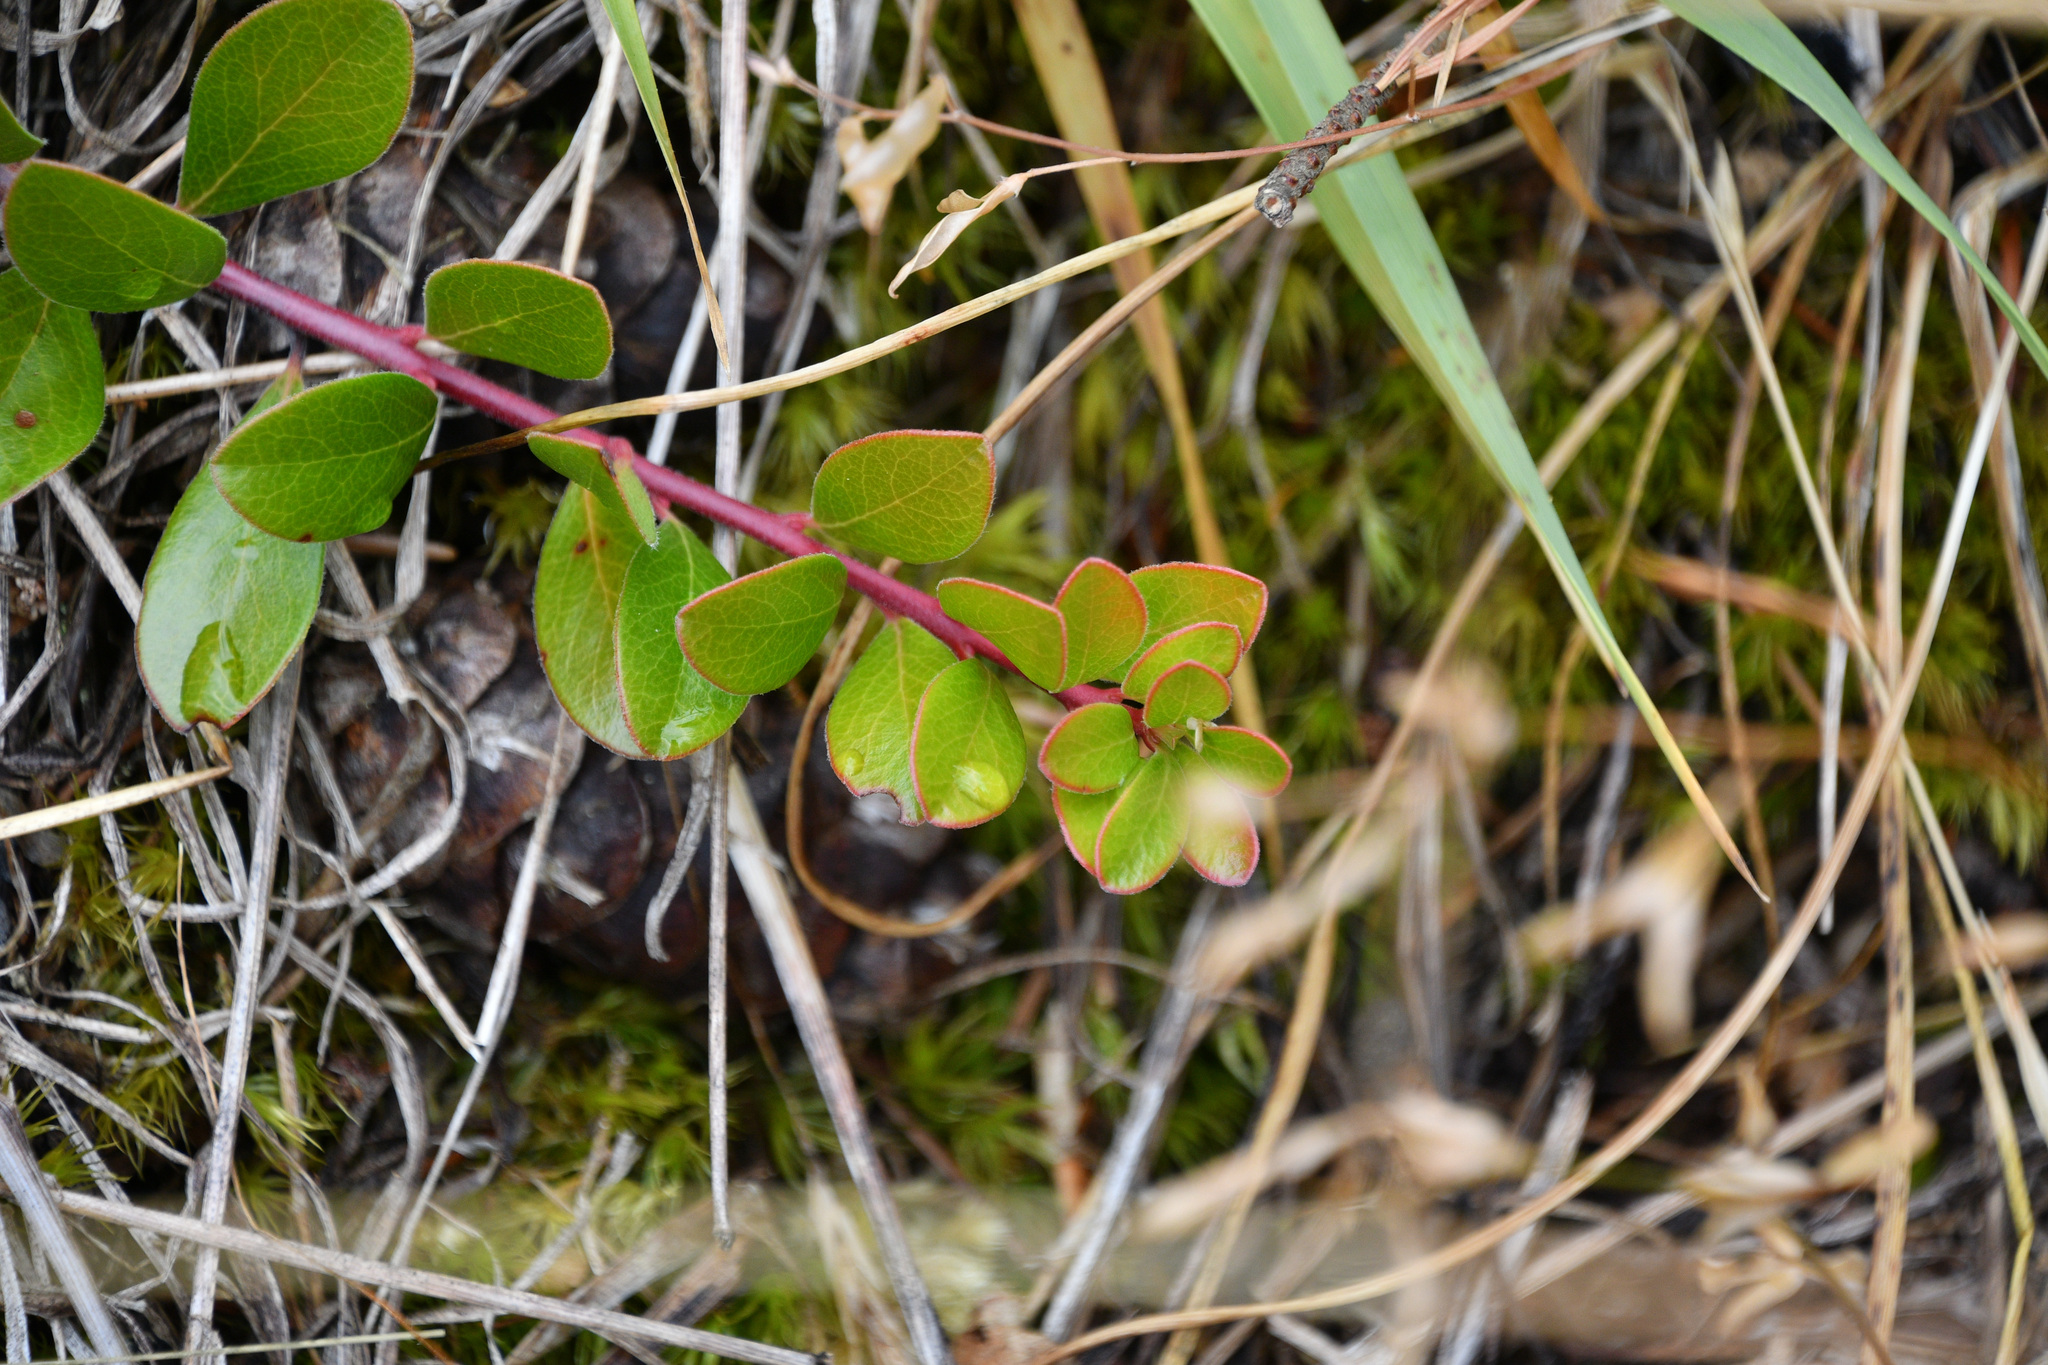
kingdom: Plantae
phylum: Tracheophyta
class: Magnoliopsida
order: Ericales
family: Ericaceae
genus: Arctostaphylos
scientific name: Arctostaphylos uva-ursi
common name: Bearberry
